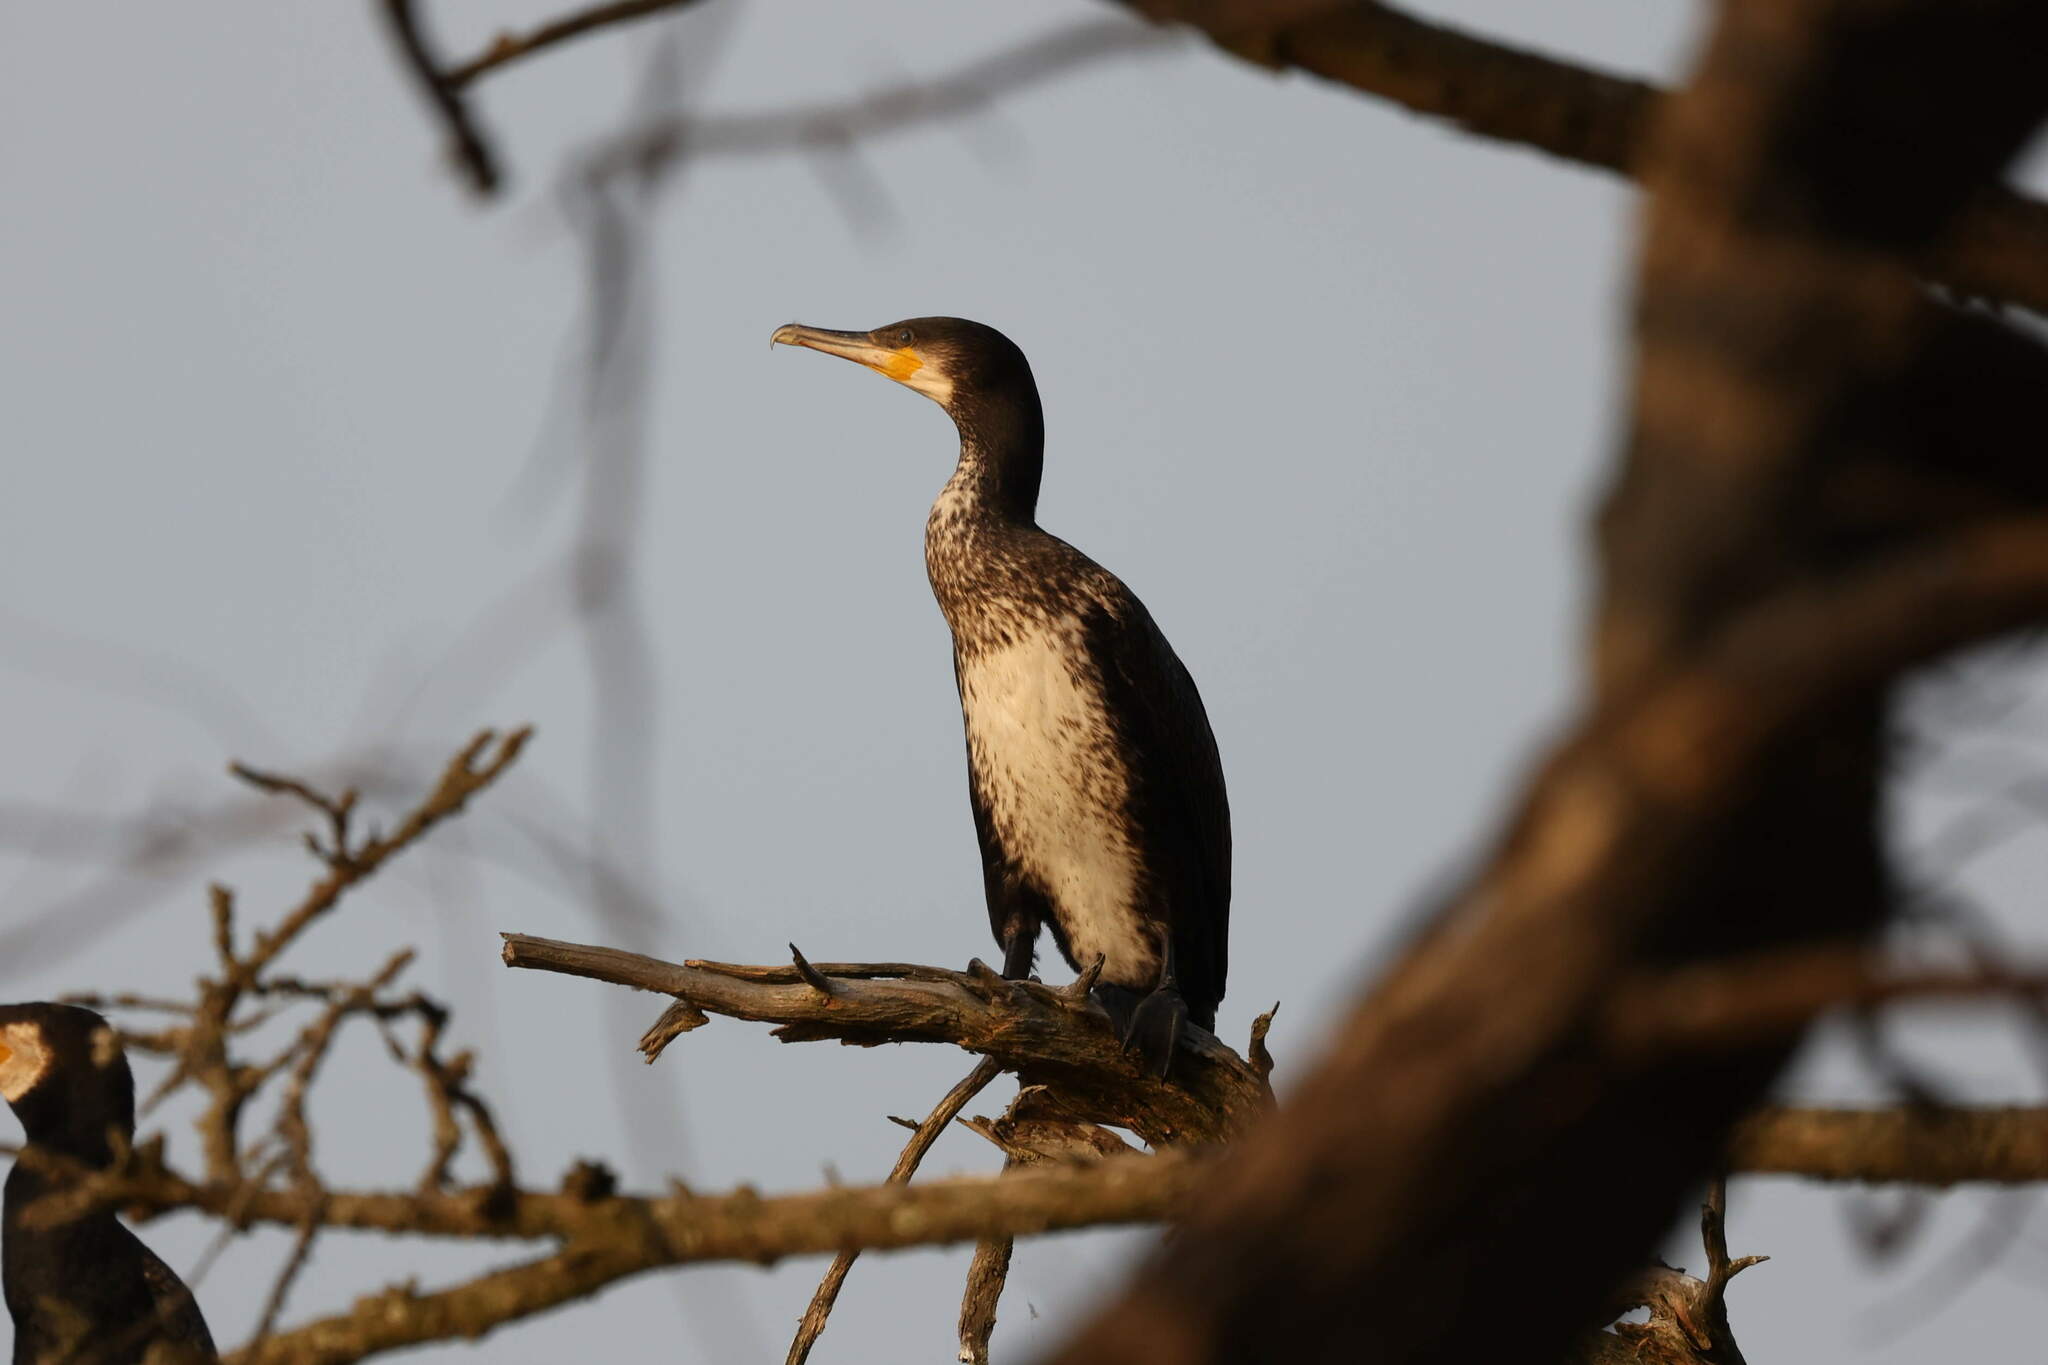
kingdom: Animalia
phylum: Chordata
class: Aves
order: Suliformes
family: Phalacrocoracidae
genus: Phalacrocorax
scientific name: Phalacrocorax carbo
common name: Great cormorant
